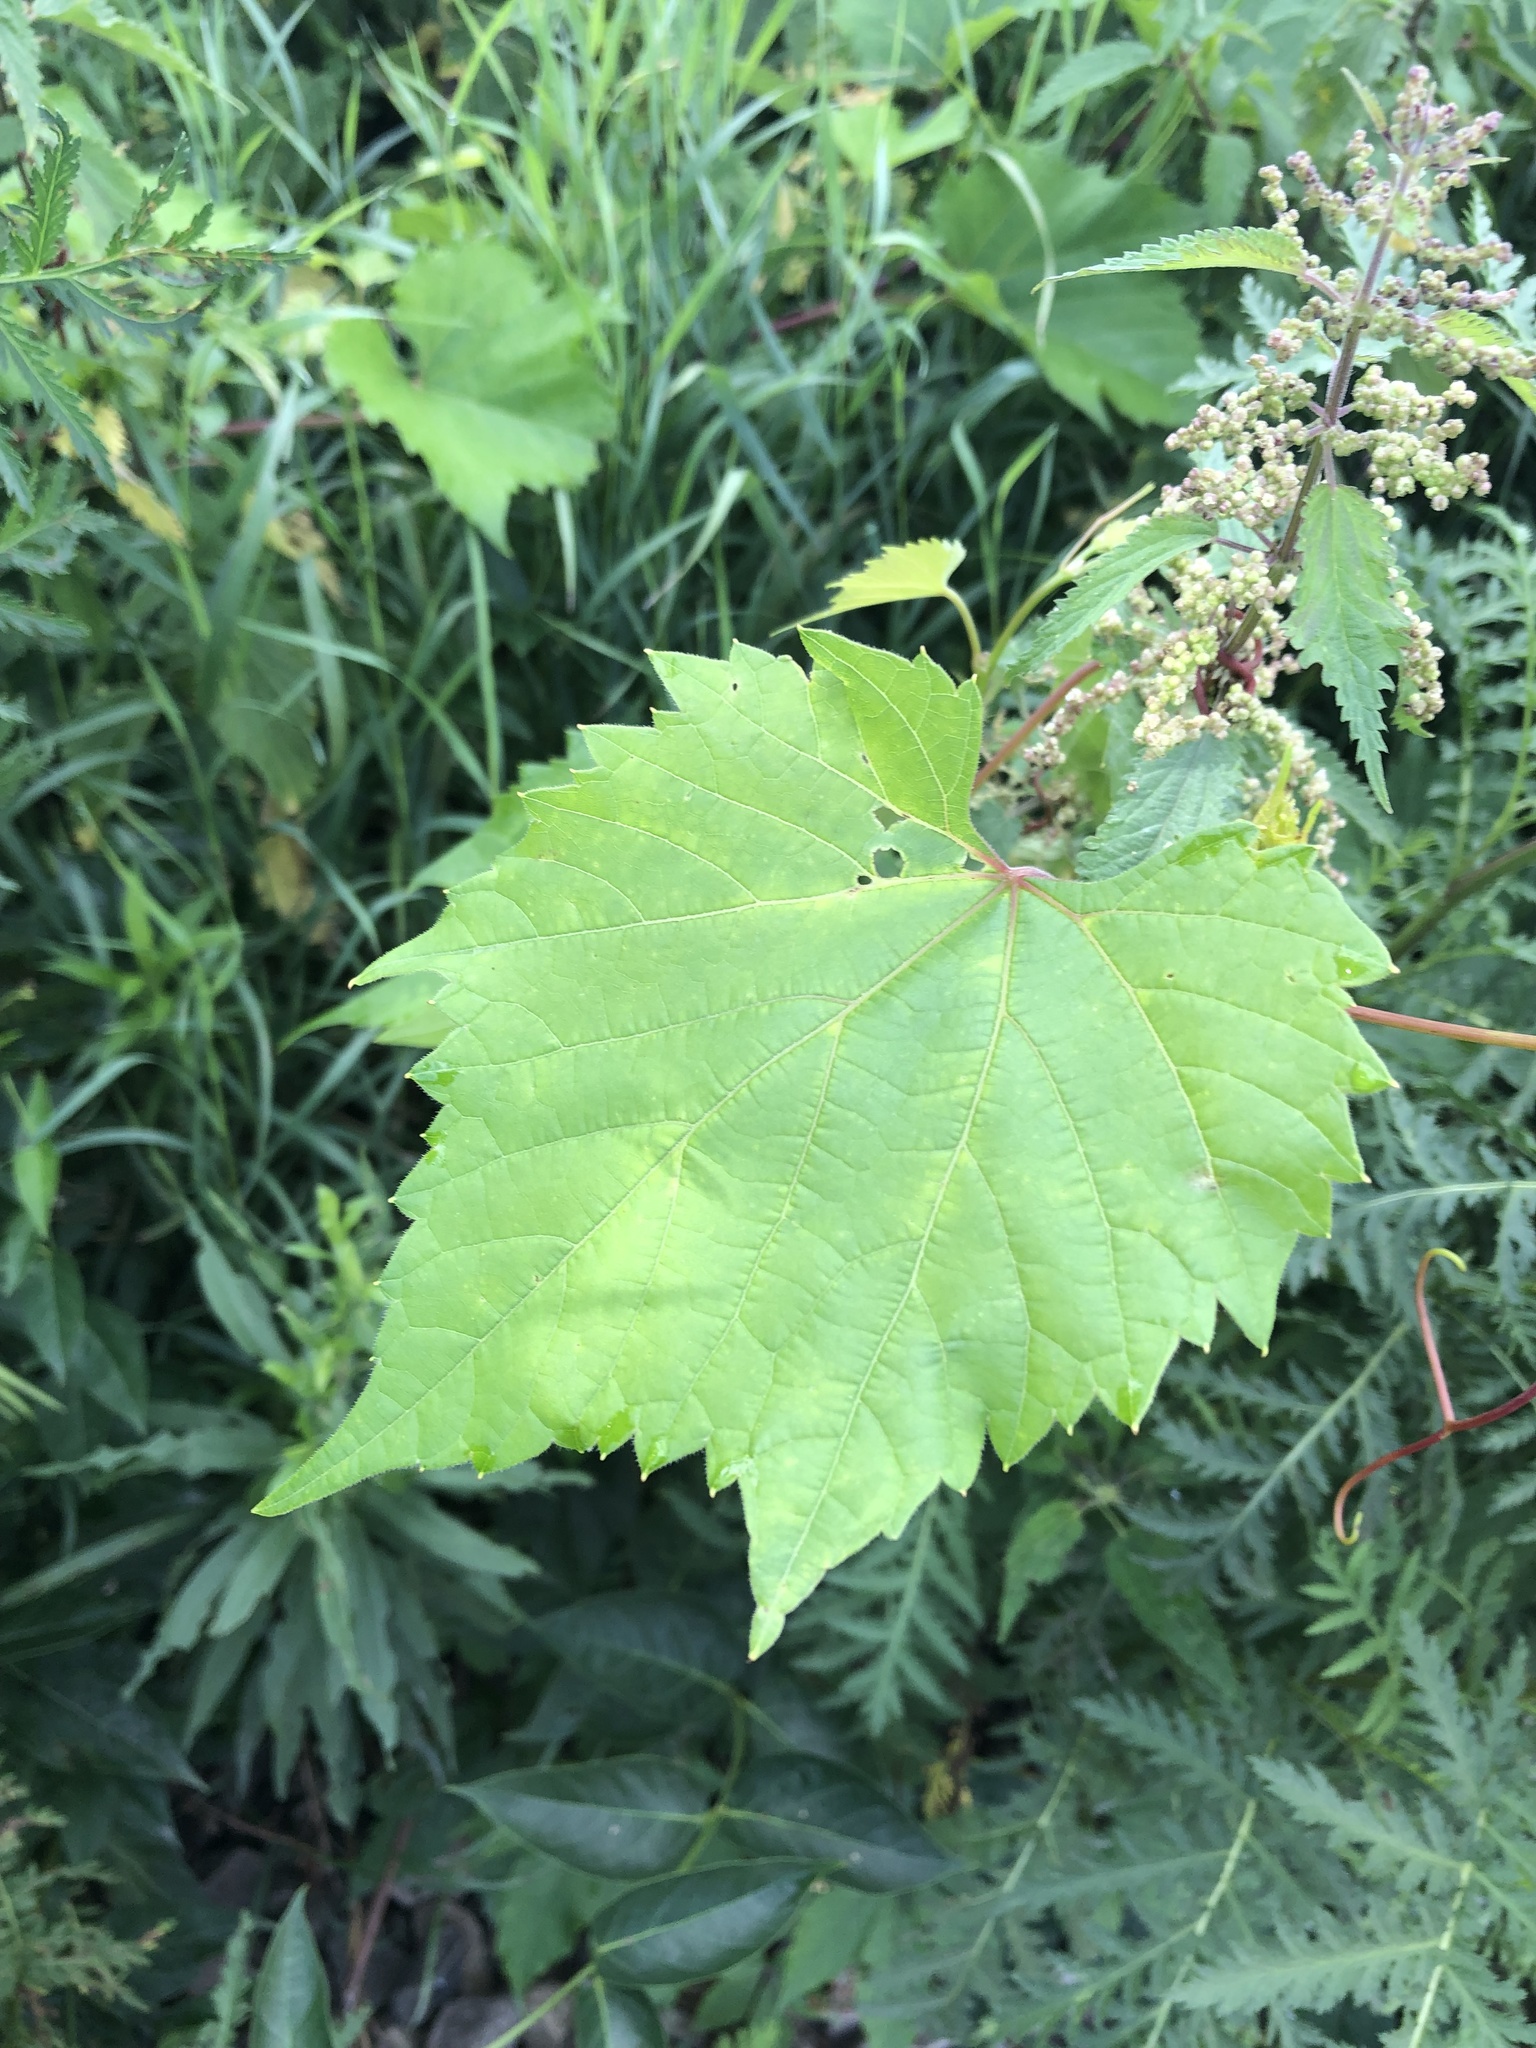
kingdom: Plantae
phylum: Tracheophyta
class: Magnoliopsida
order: Vitales
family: Vitaceae
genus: Vitis
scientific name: Vitis riparia
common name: Frost grape
